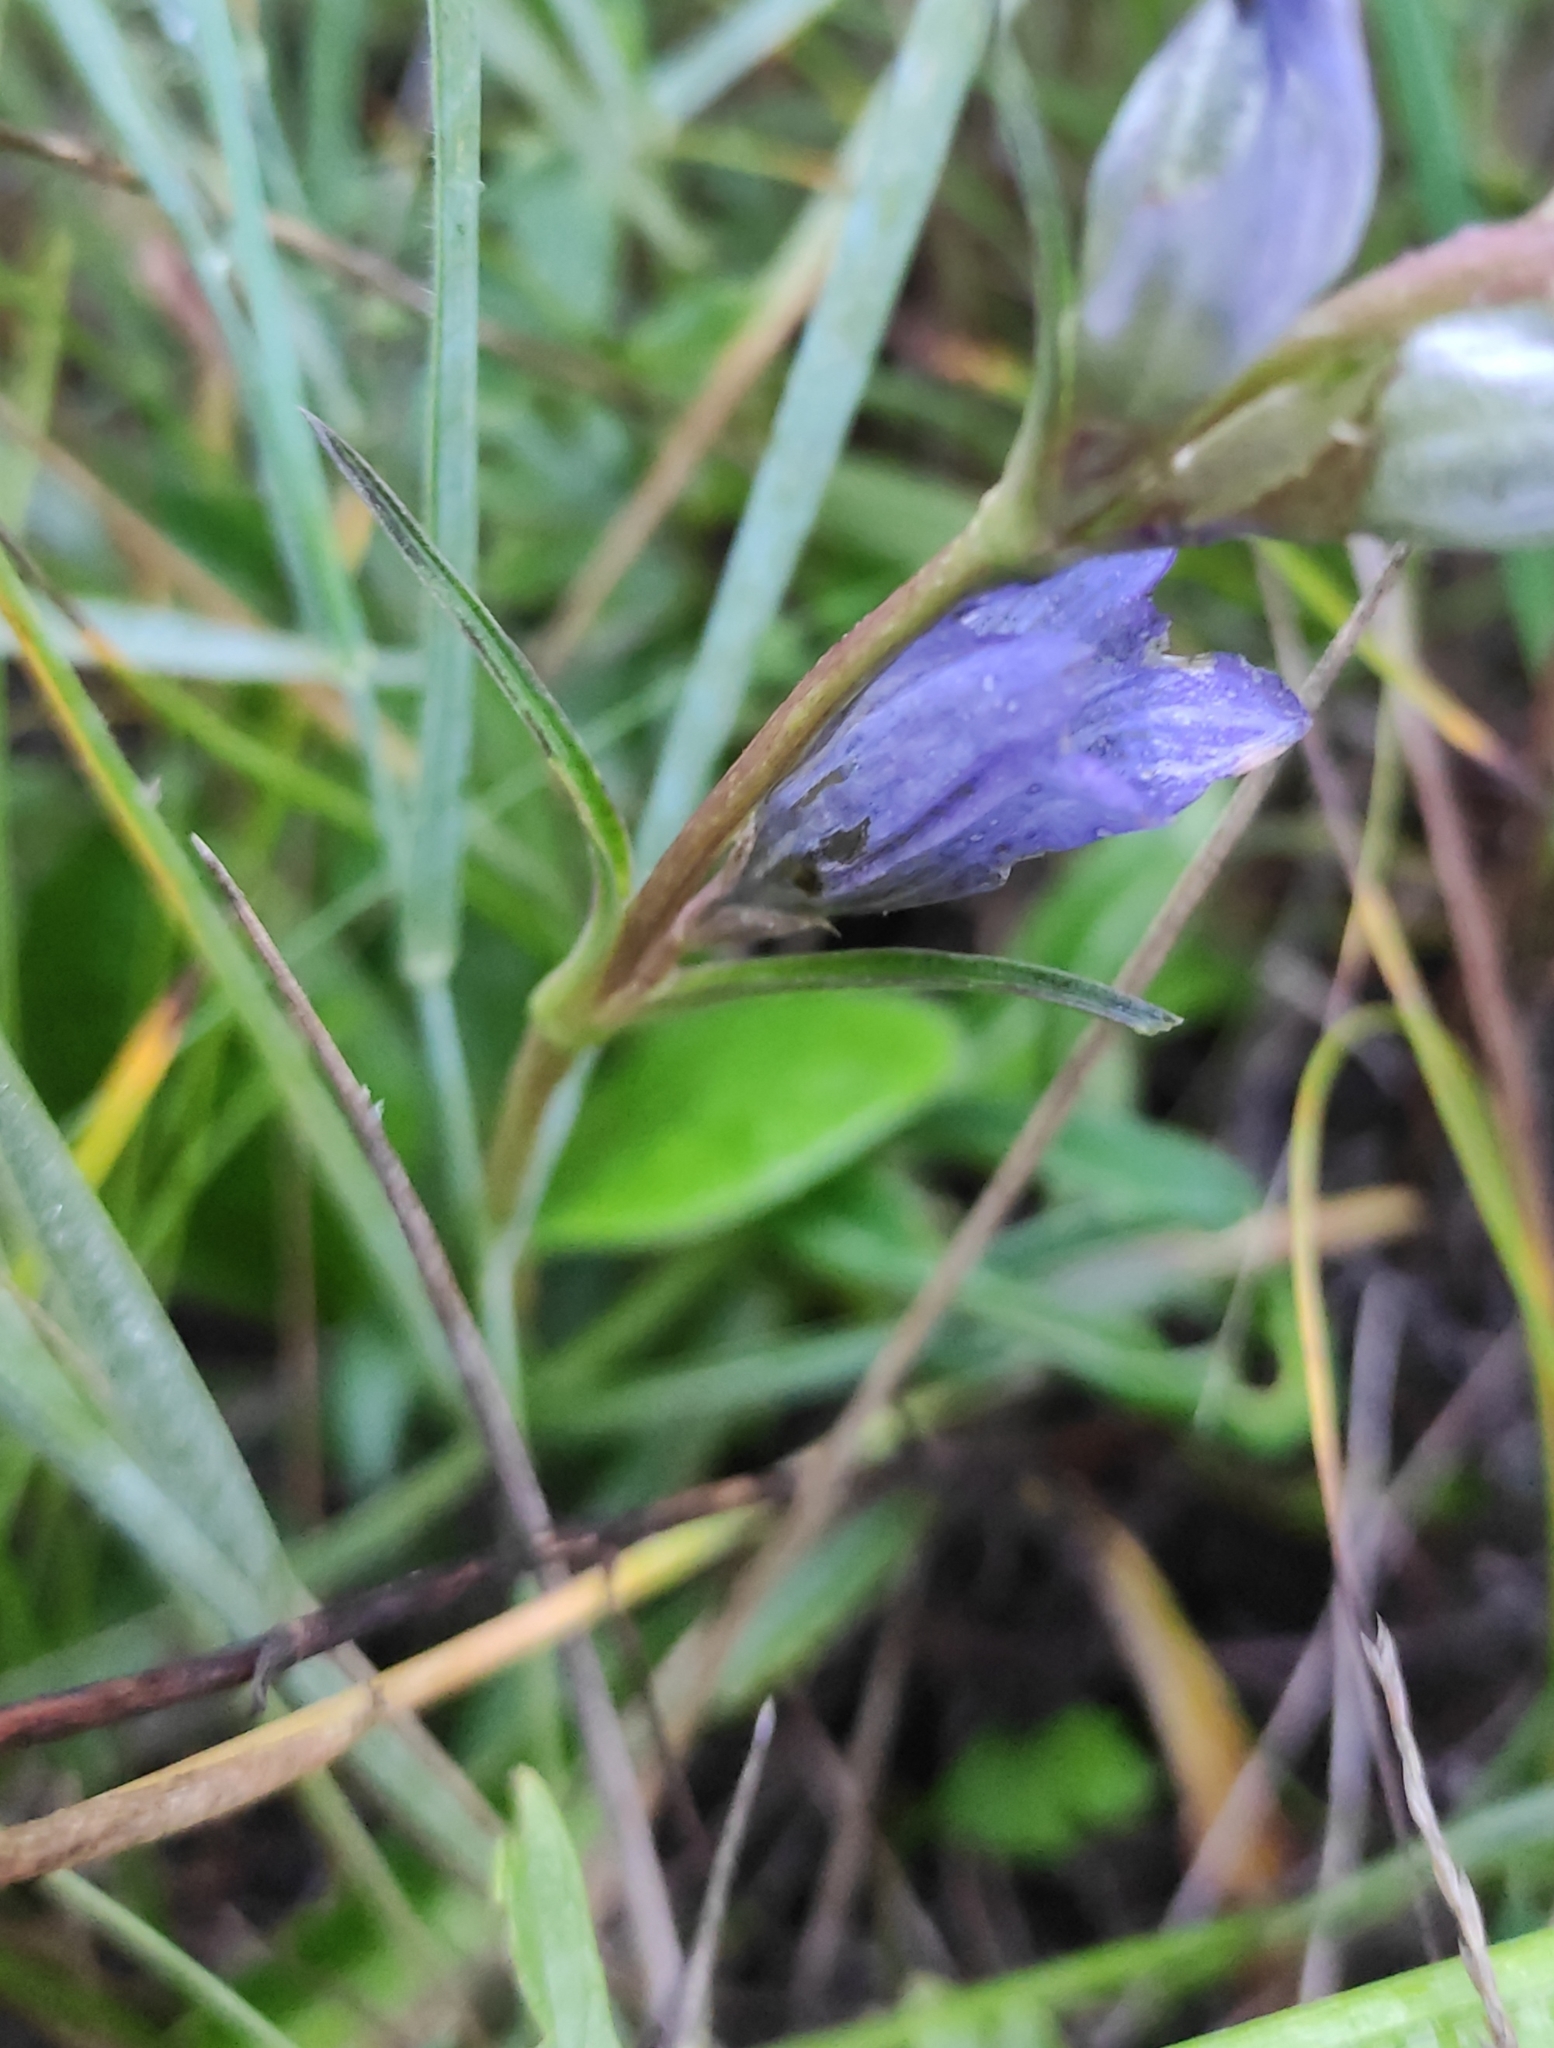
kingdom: Plantae
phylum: Tracheophyta
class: Magnoliopsida
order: Gentianales
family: Gentianaceae
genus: Gentiana
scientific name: Gentiana decumbens
